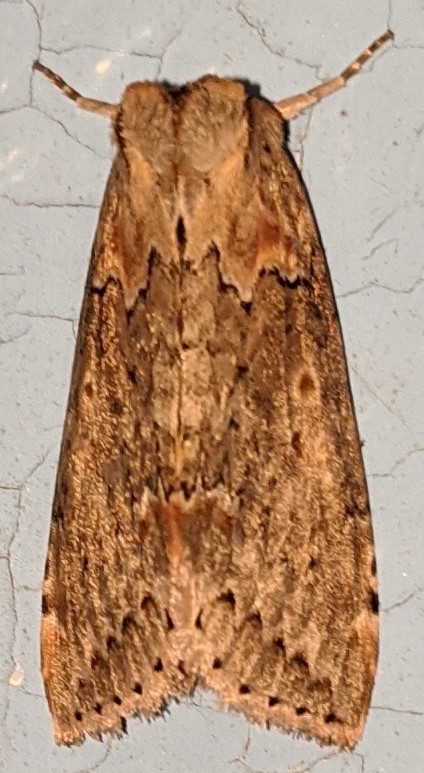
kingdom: Animalia
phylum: Arthropoda
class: Insecta
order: Lepidoptera
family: Drepanidae
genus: Pseudothyatira
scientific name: Pseudothyatira cymatophoroides
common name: Tufted thyatirid moth
